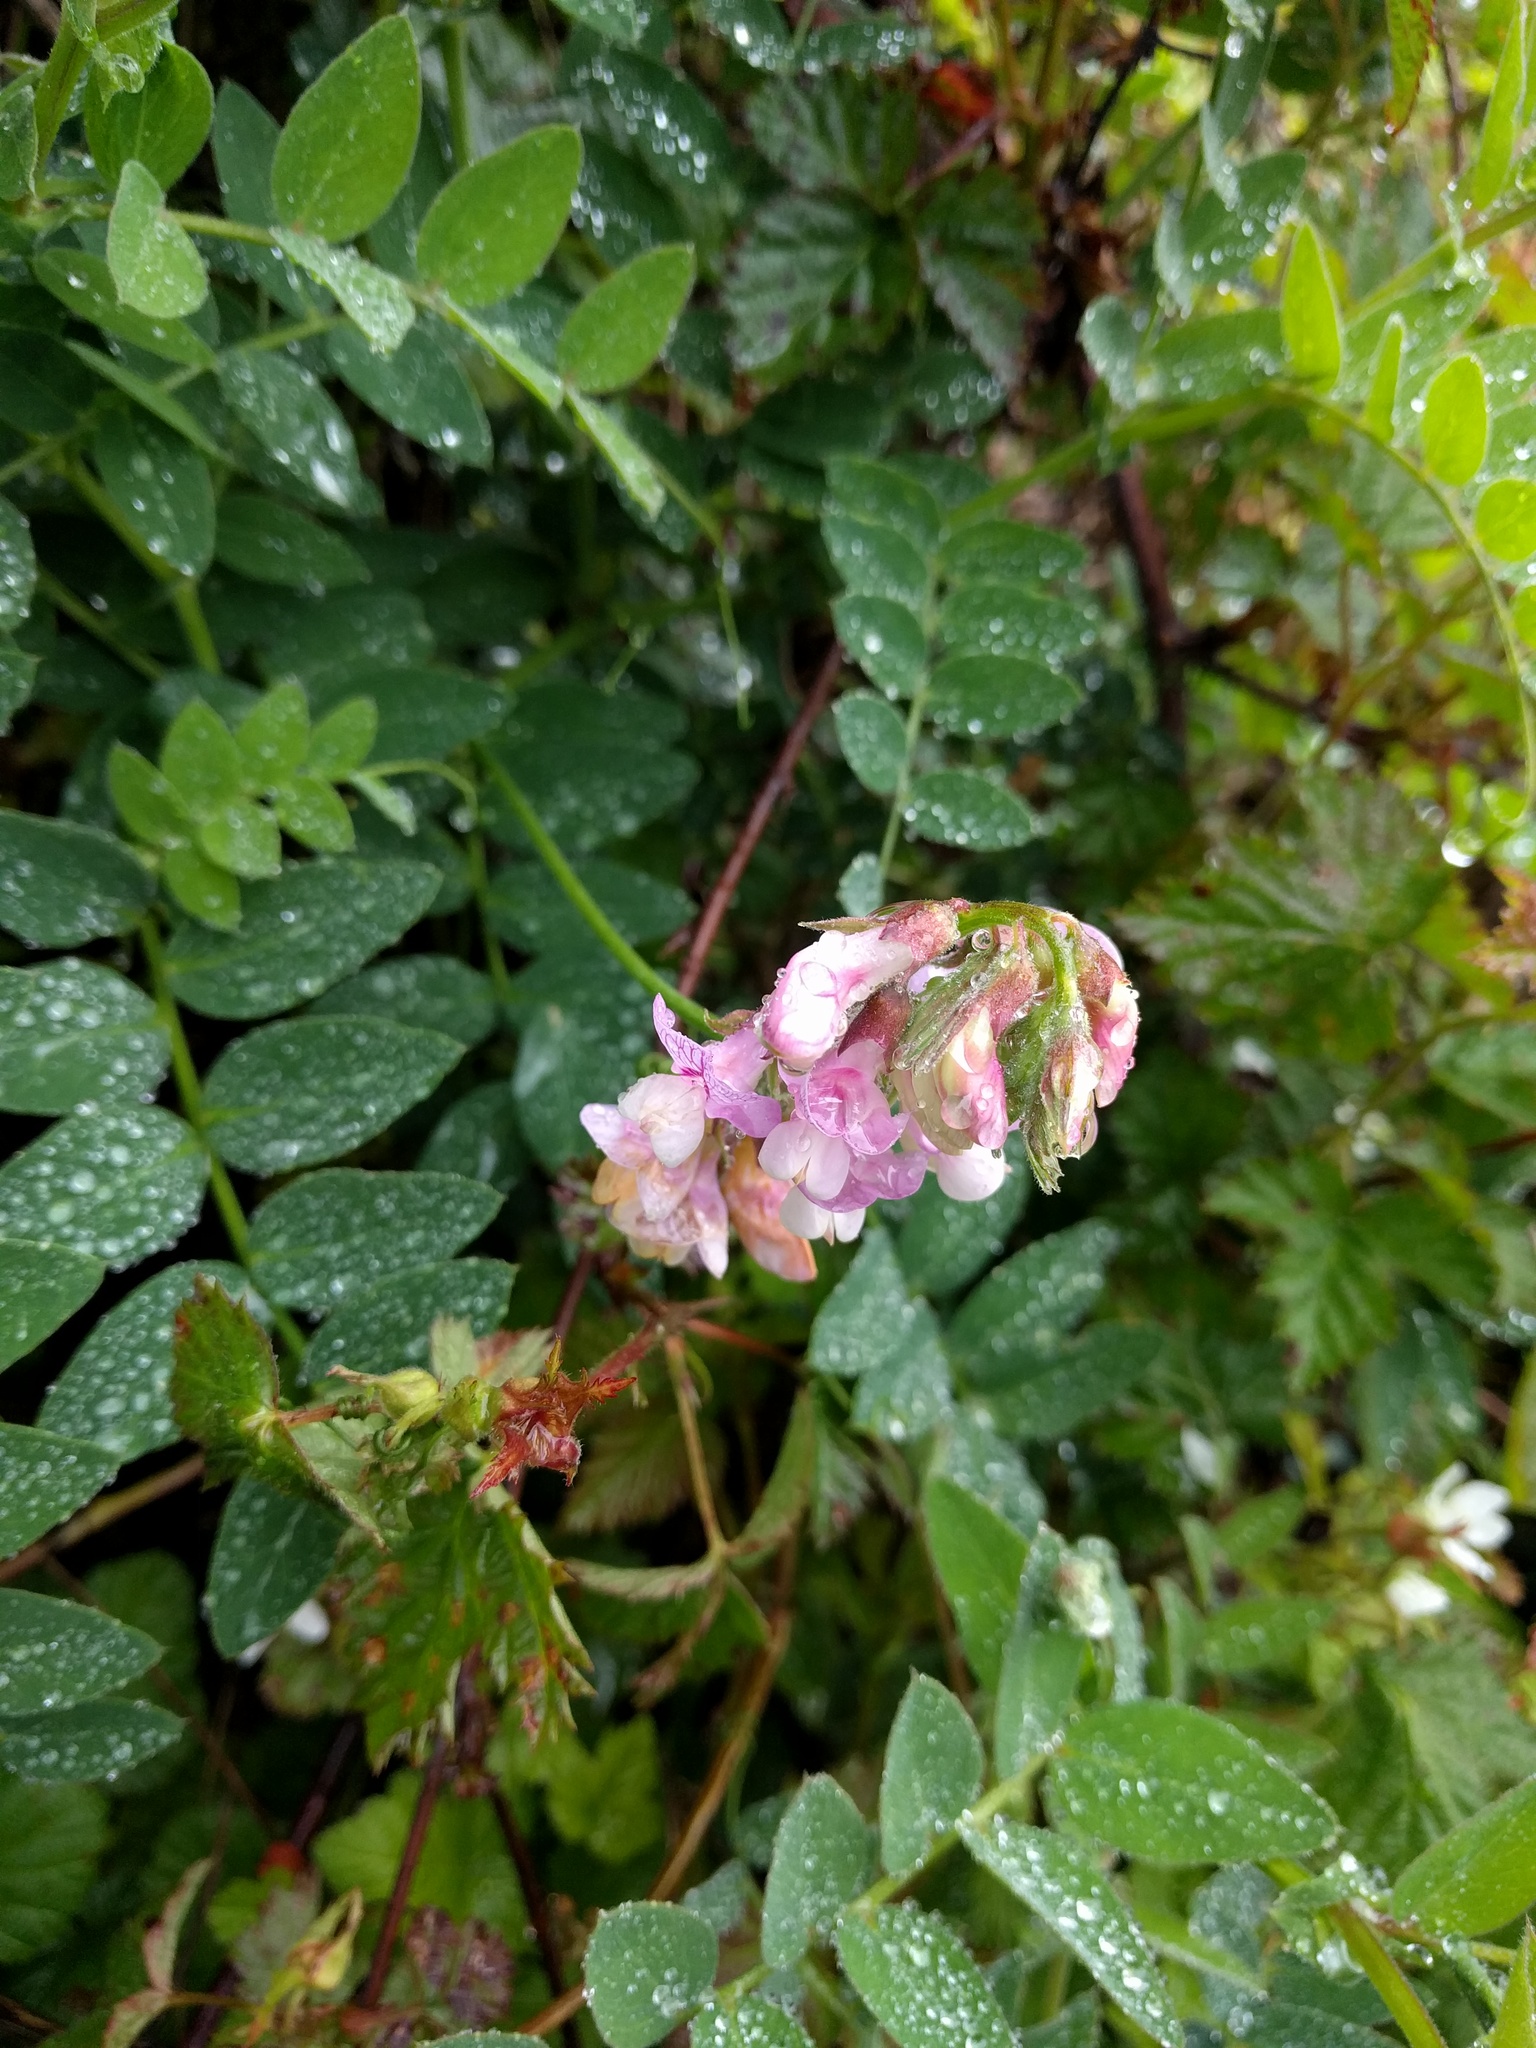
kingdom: Plantae
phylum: Tracheophyta
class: Magnoliopsida
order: Fabales
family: Fabaceae
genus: Lathyrus
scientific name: Lathyrus vestitus
